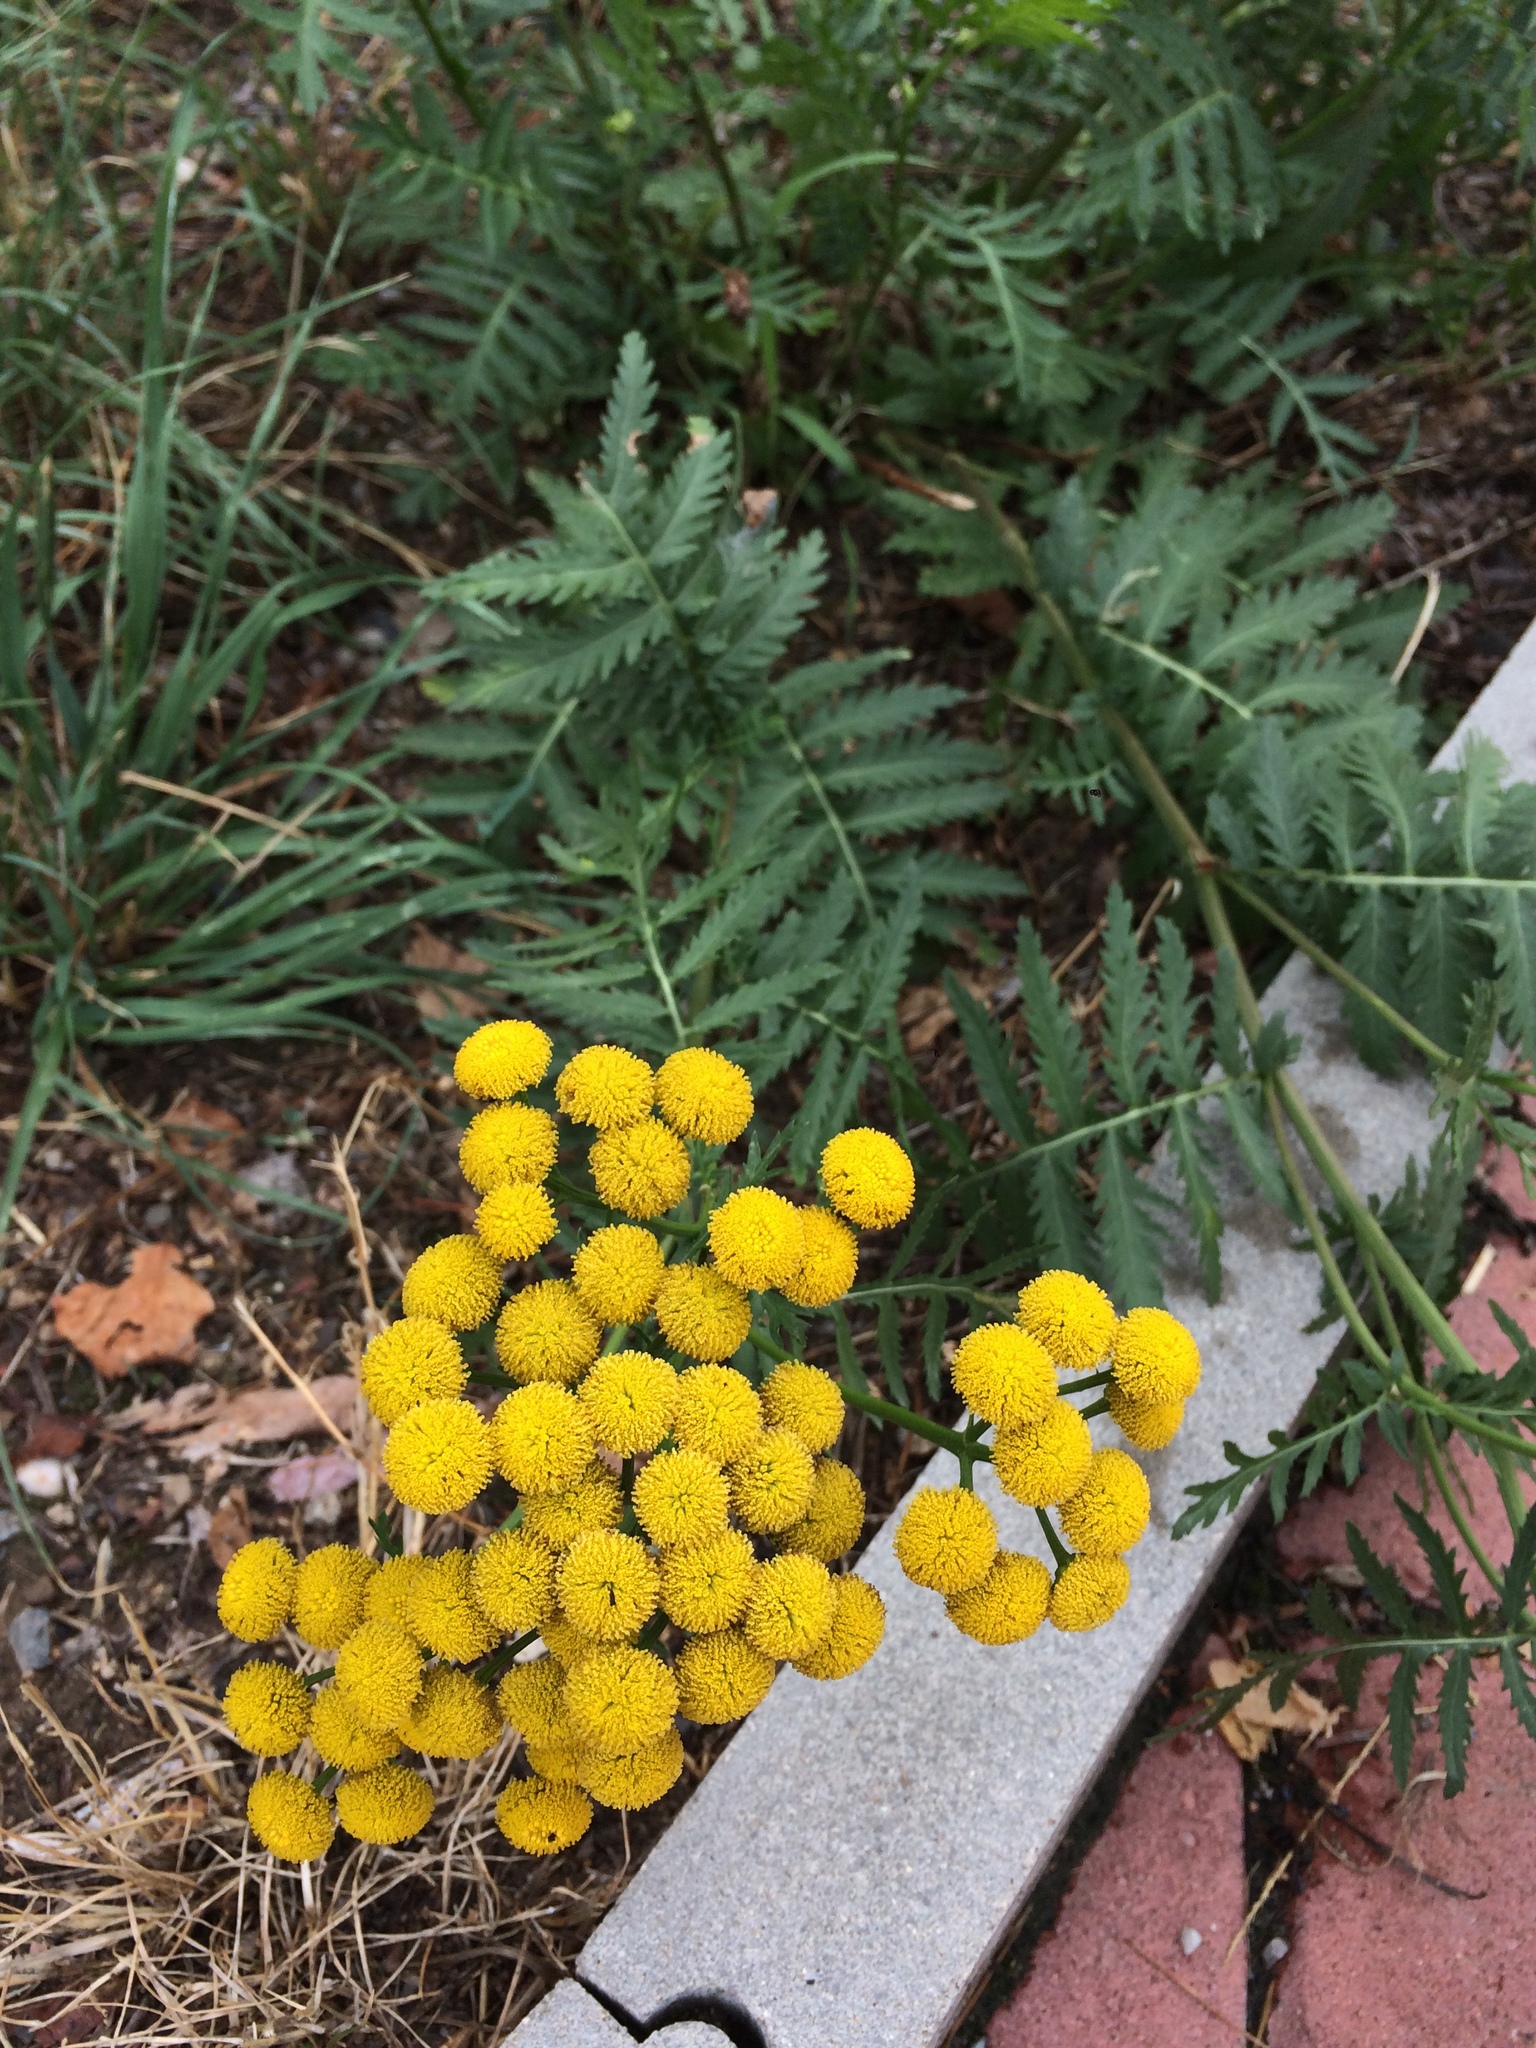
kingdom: Plantae
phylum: Tracheophyta
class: Magnoliopsida
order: Asterales
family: Asteraceae
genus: Tanacetum
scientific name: Tanacetum vulgare
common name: Common tansy
